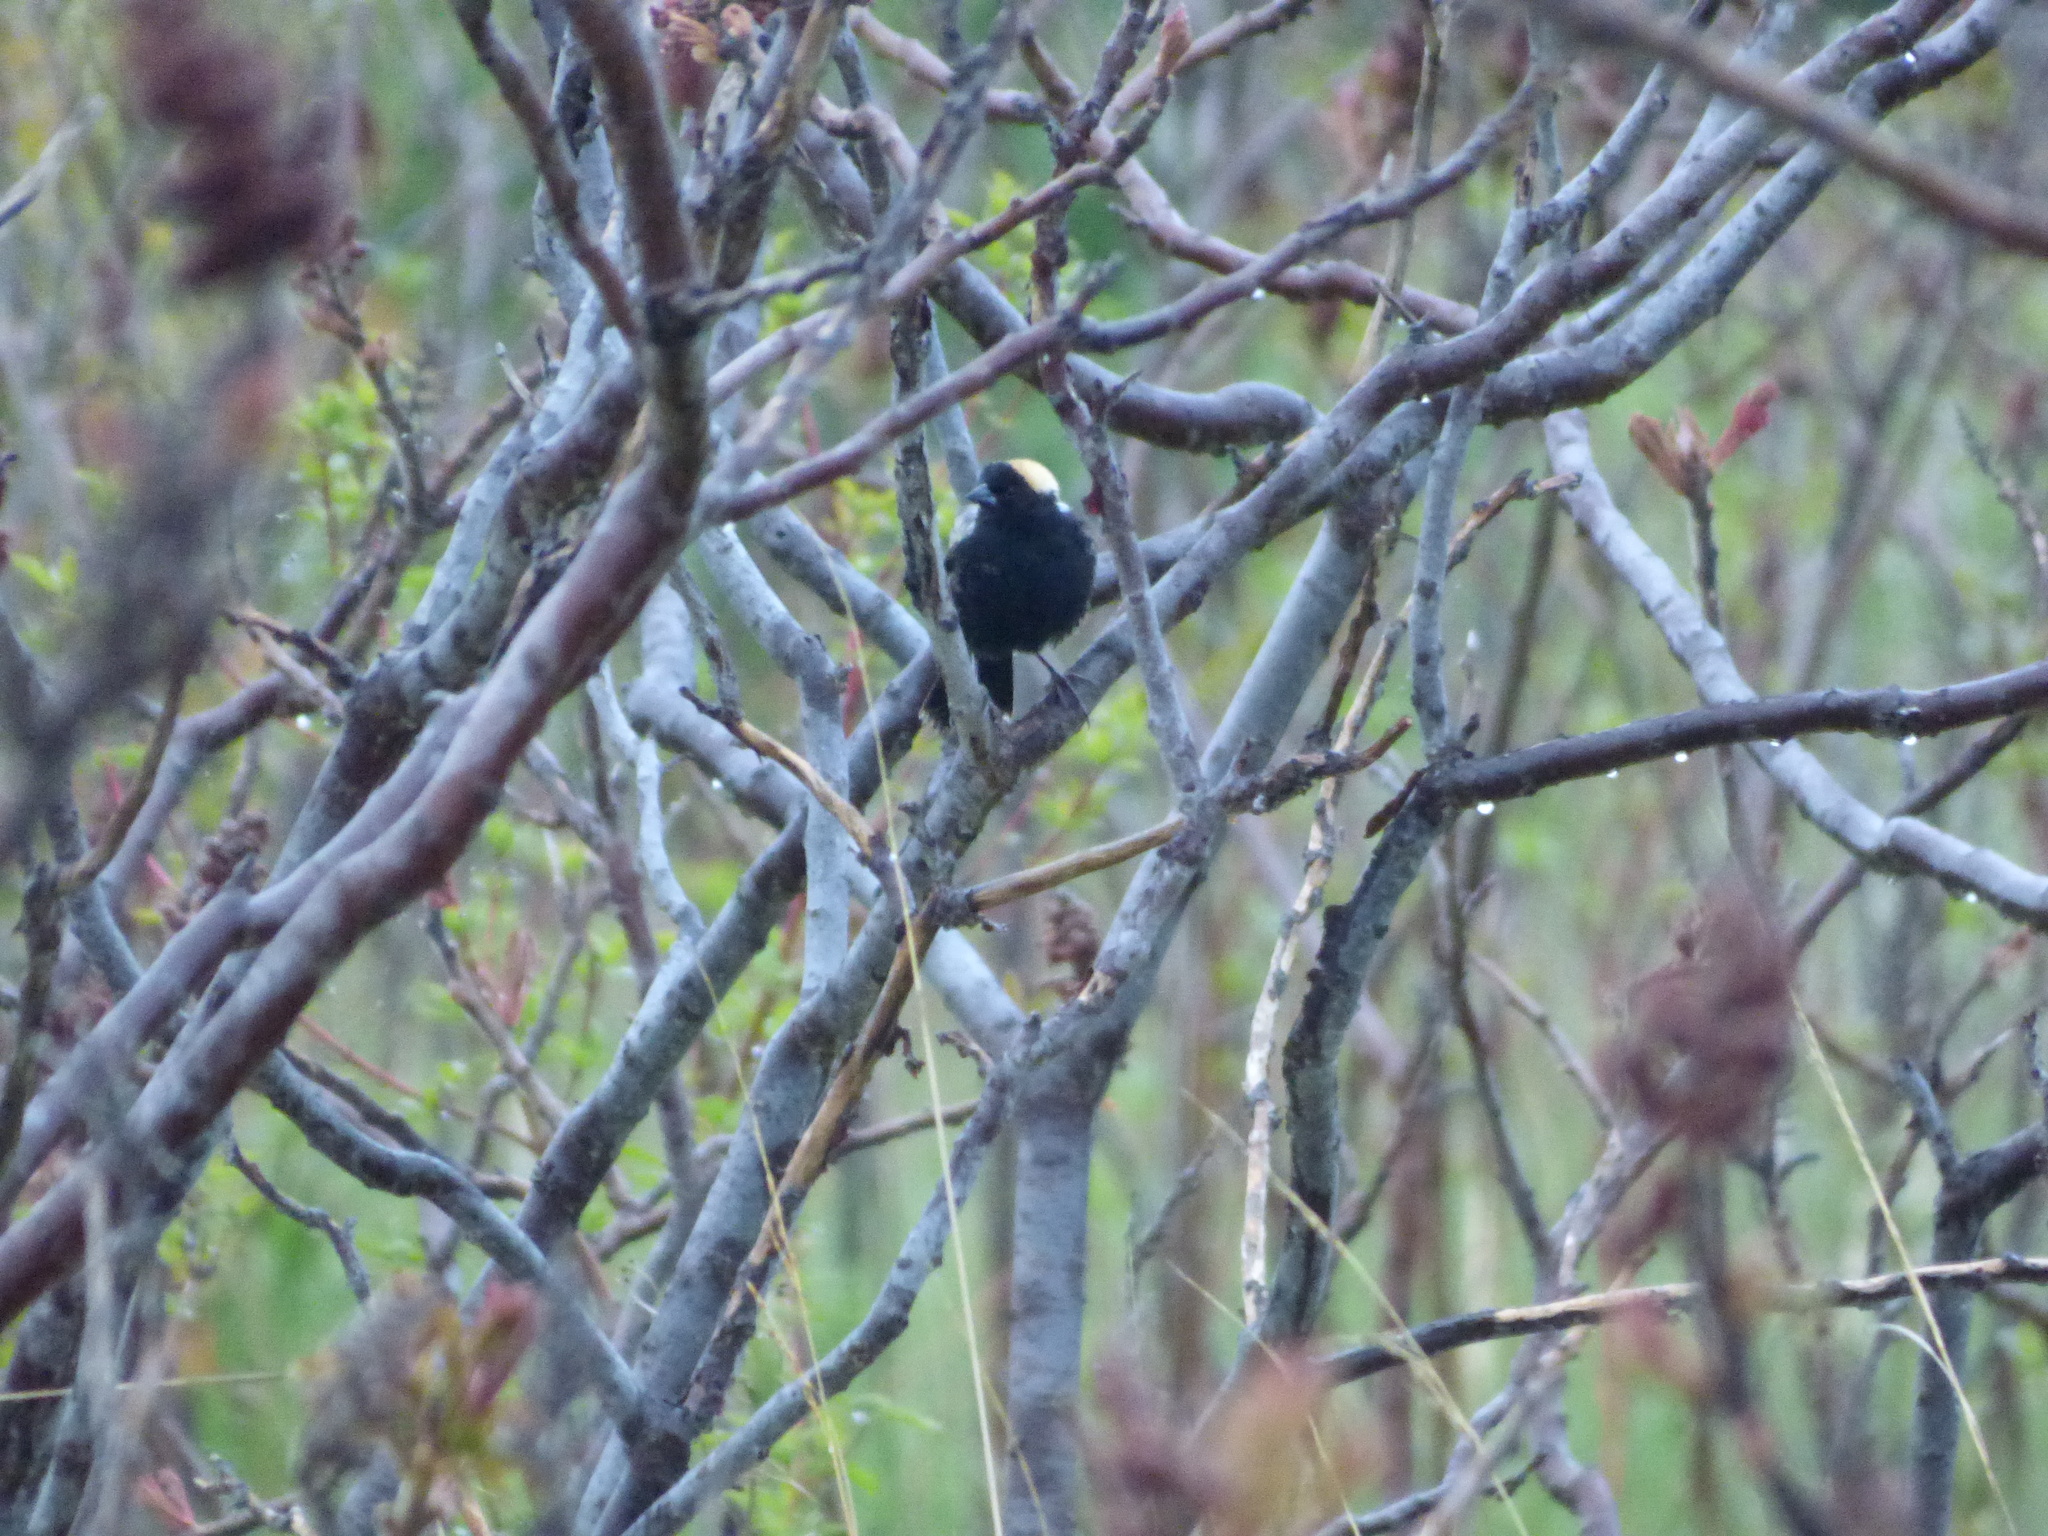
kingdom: Animalia
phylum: Chordata
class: Aves
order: Passeriformes
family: Icteridae
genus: Dolichonyx
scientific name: Dolichonyx oryzivorus
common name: Bobolink
